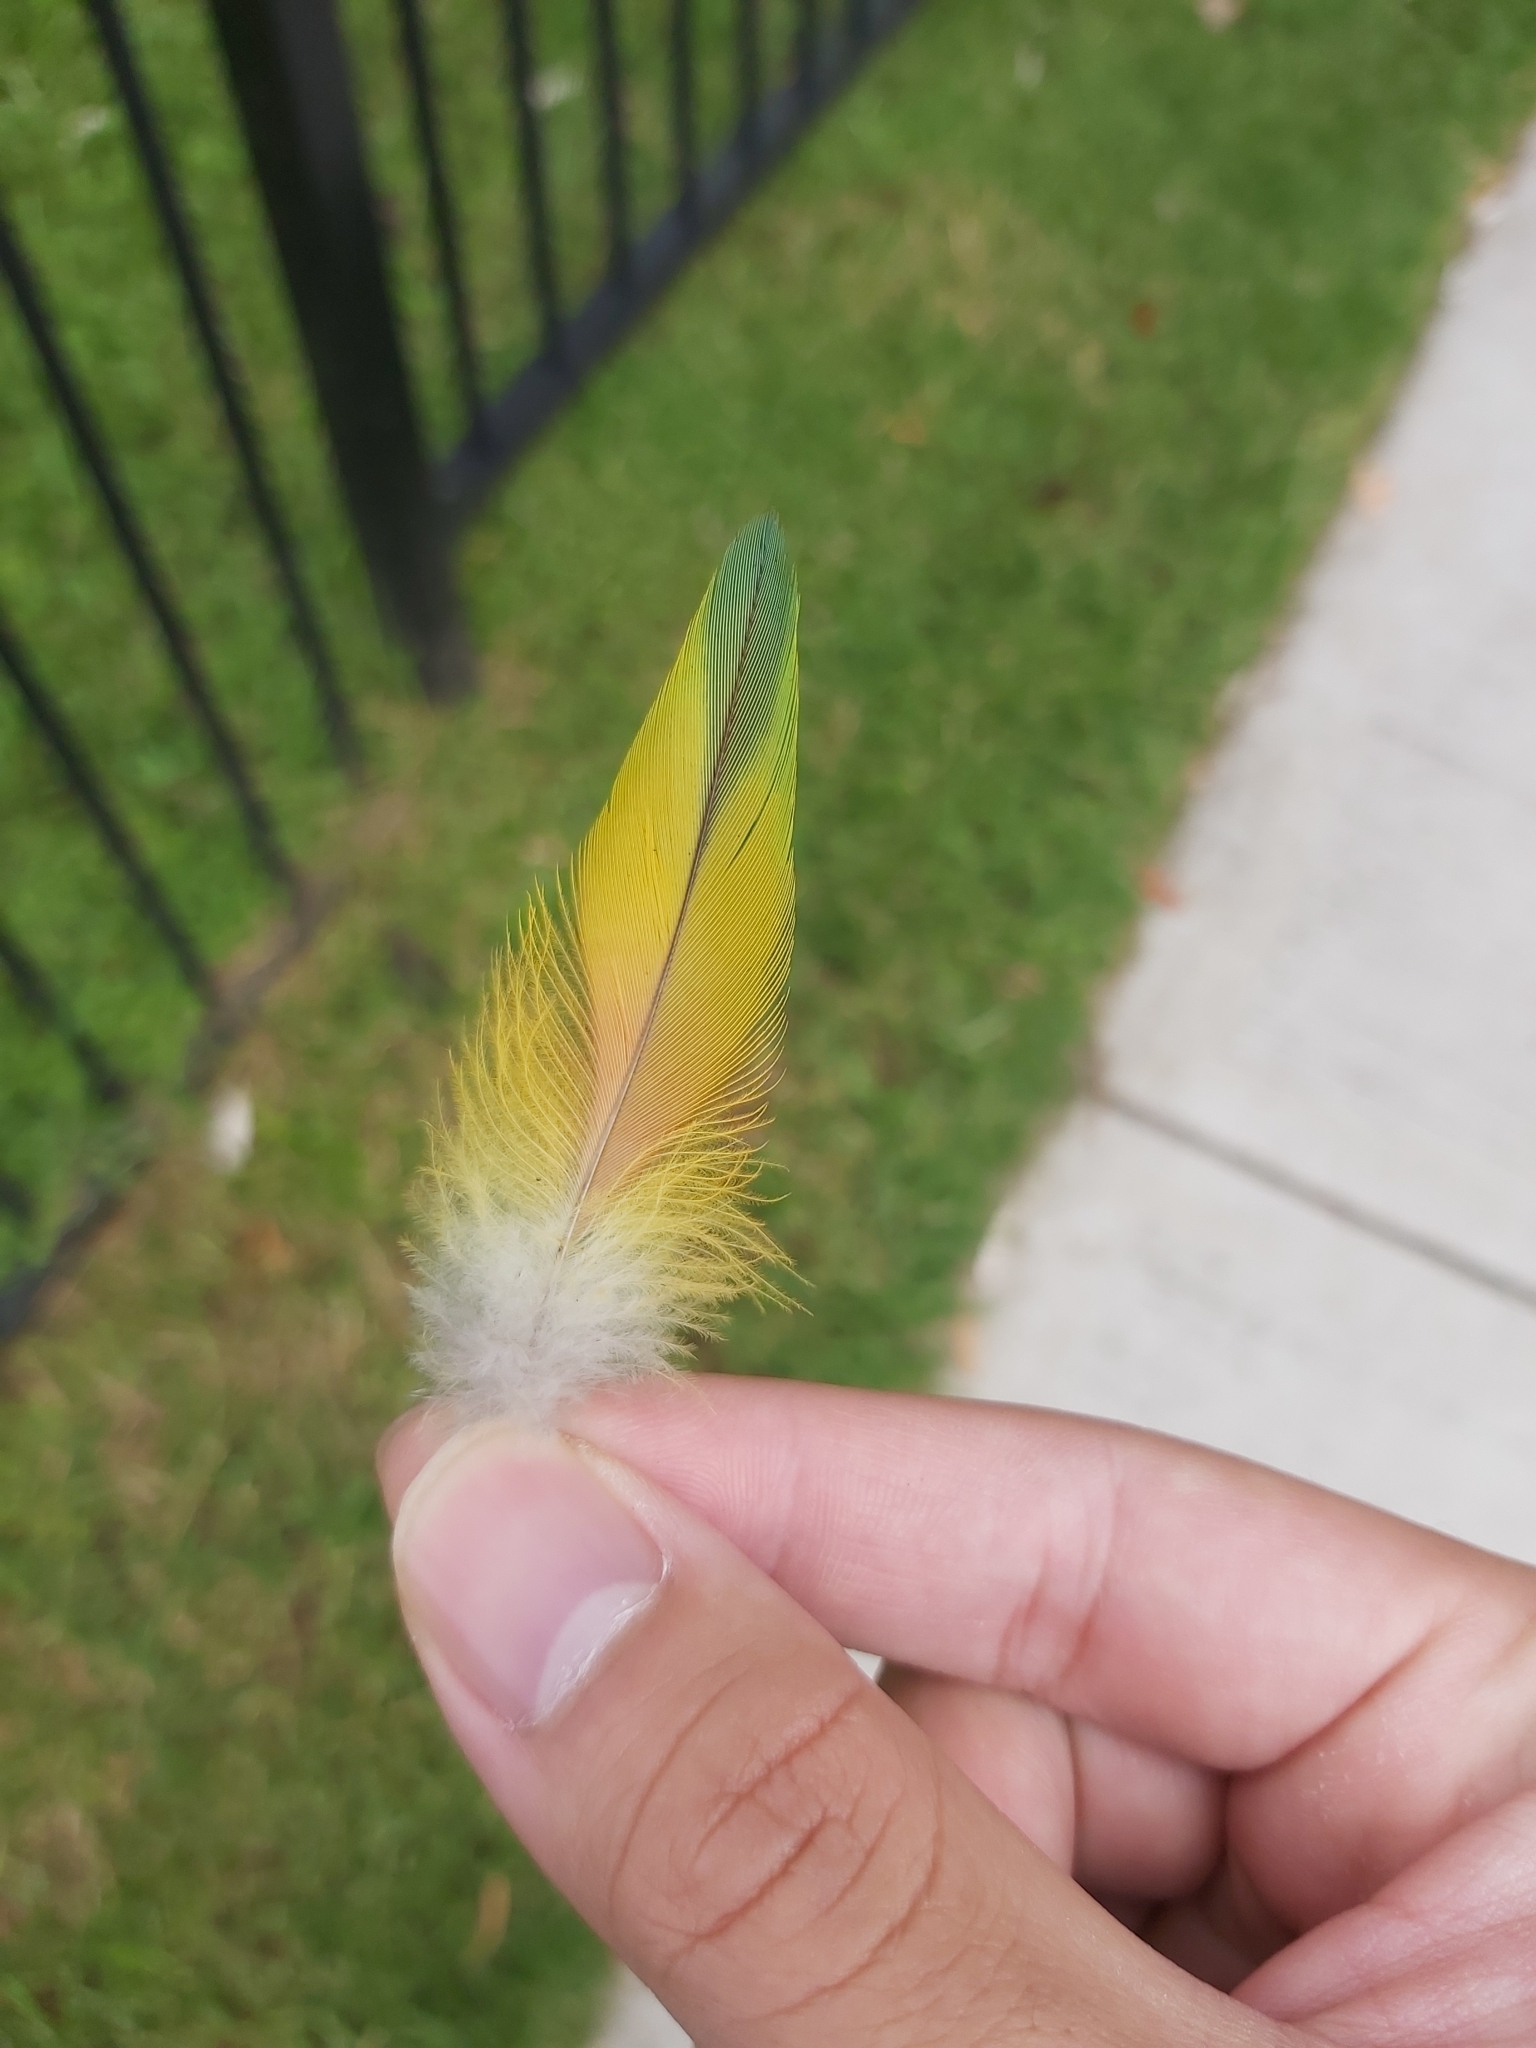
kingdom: Animalia
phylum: Chordata
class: Aves
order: Psittaciformes
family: Psittacidae
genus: Trichoglossus
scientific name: Trichoglossus haematodus
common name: Coconut lorikeet
